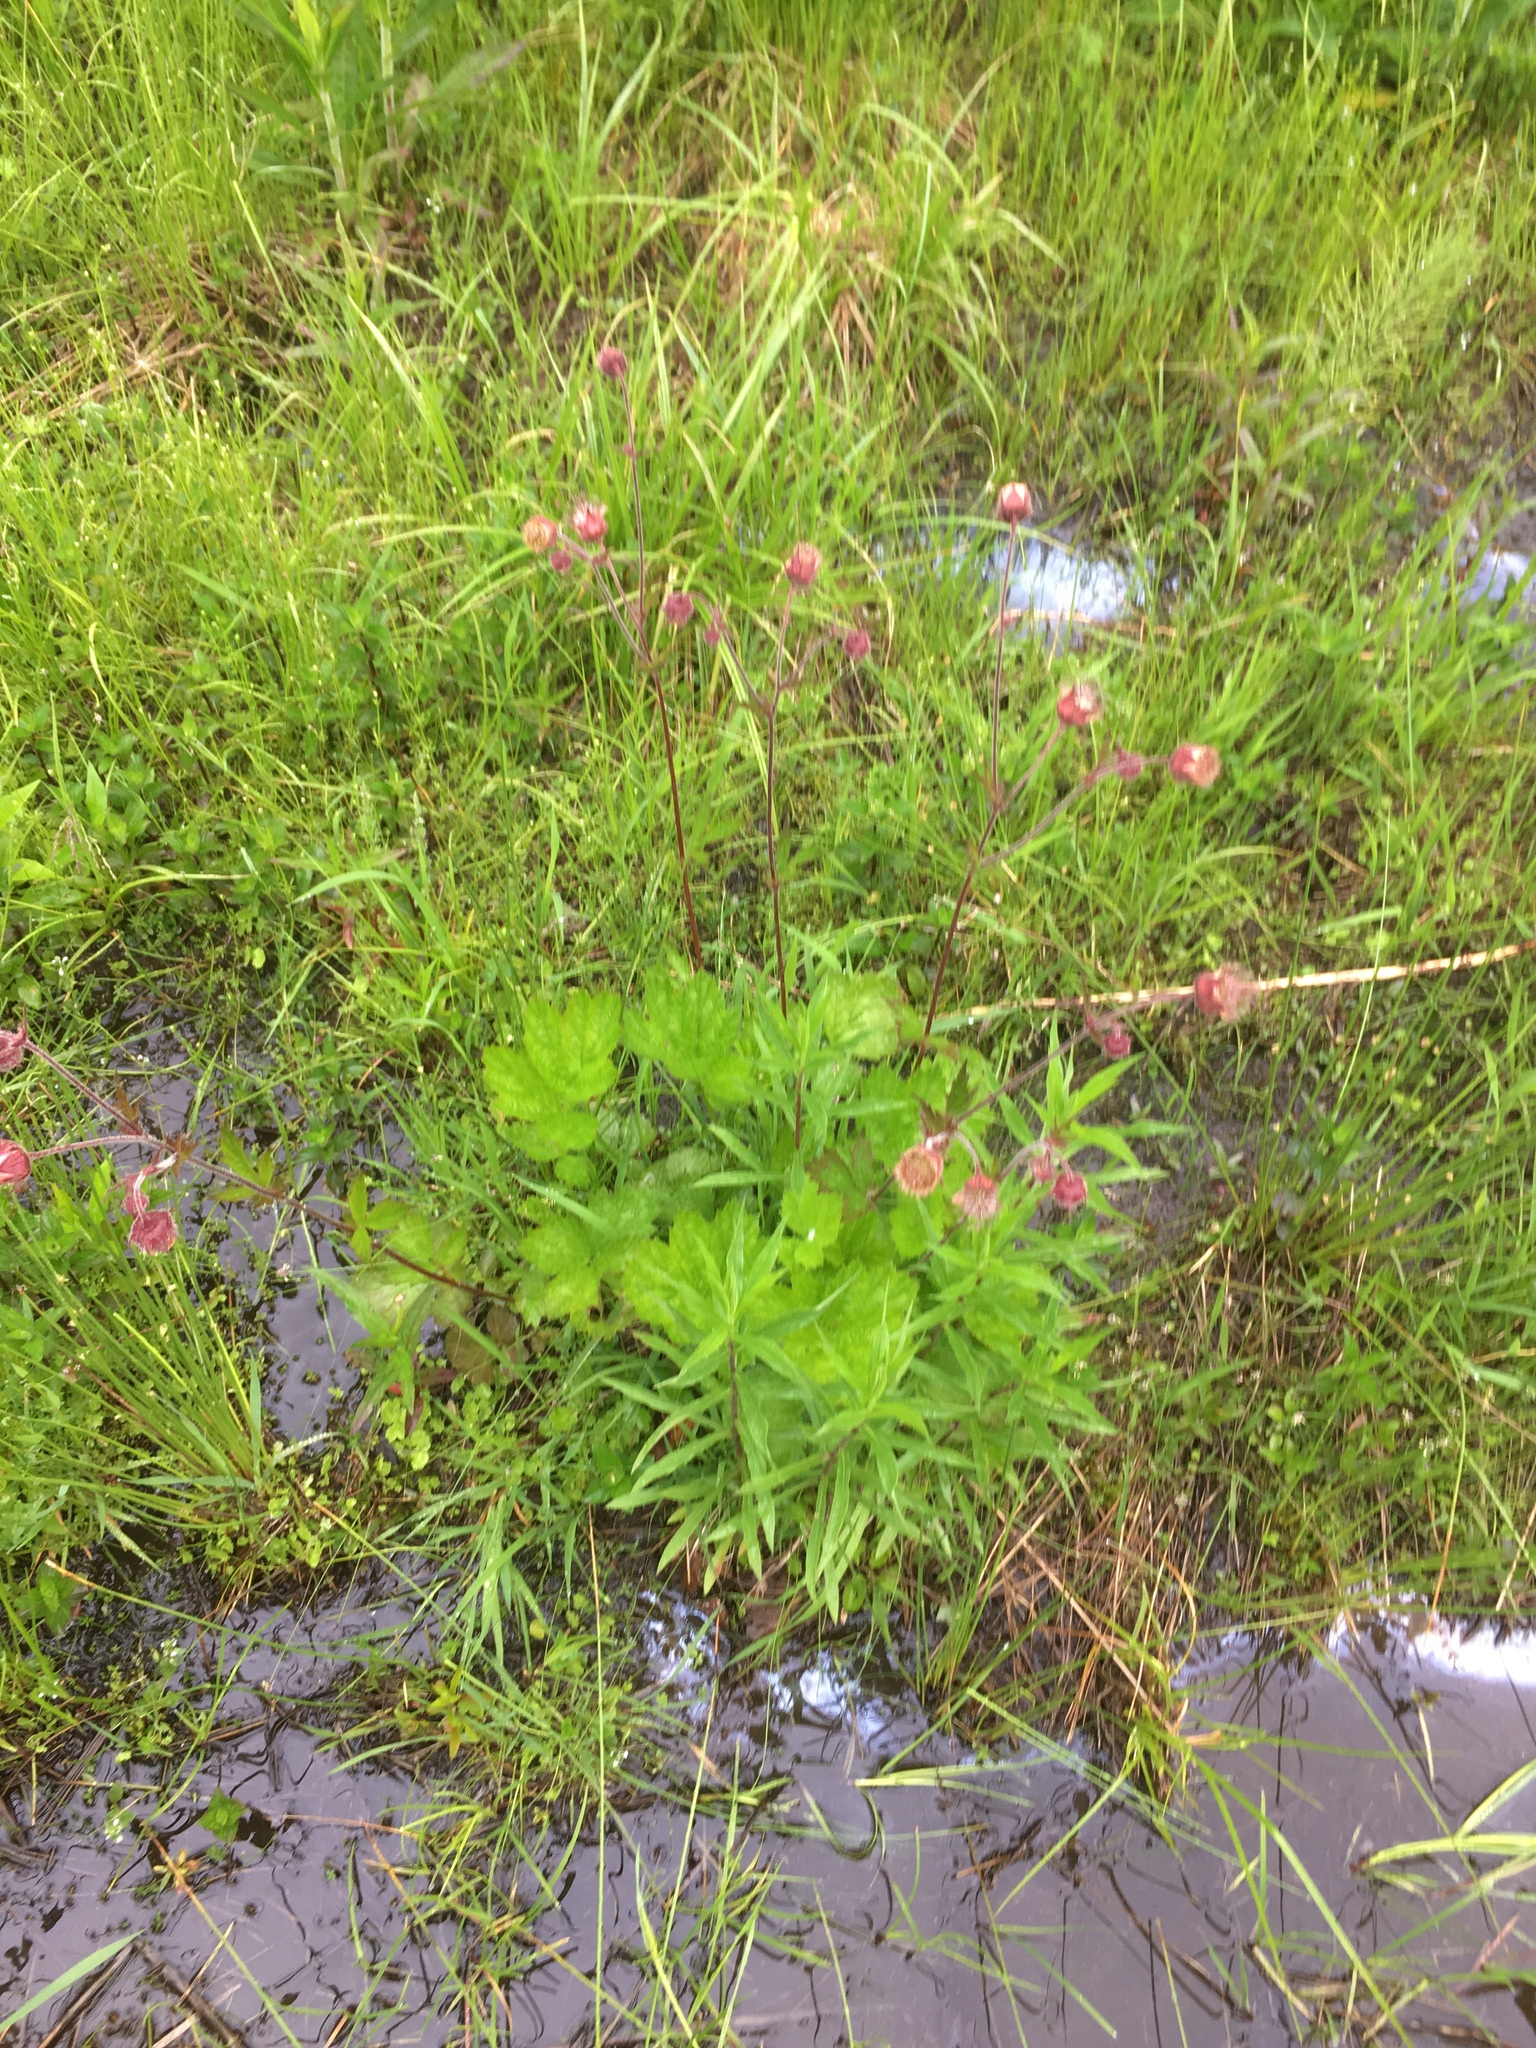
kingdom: Plantae
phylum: Tracheophyta
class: Magnoliopsida
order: Rosales
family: Rosaceae
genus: Geum
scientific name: Geum rivale
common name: Water avens
